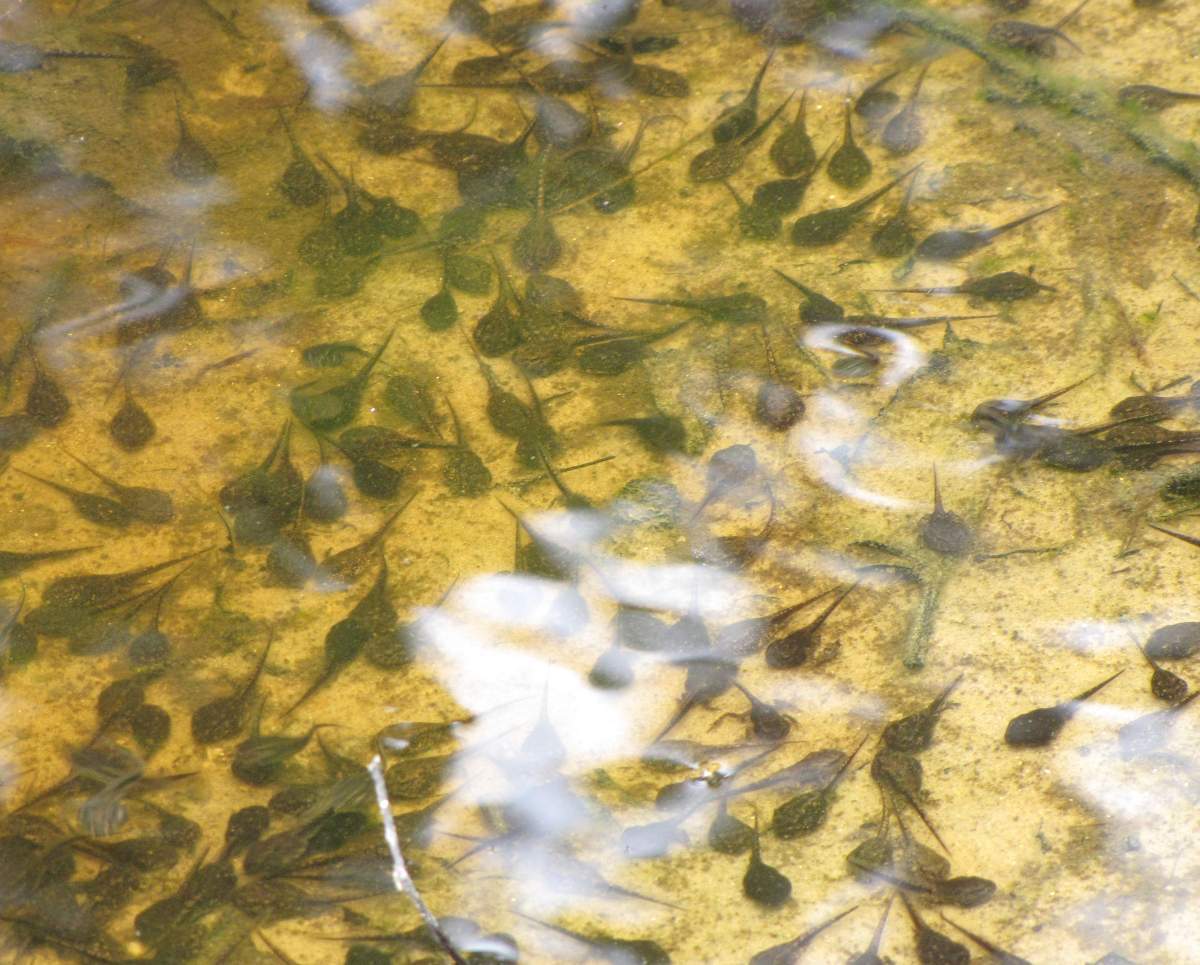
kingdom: Animalia
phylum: Chordata
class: Amphibia
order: Anura
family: Bufonidae
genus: Anaxyrus
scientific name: Anaxyrus americanus
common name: American toad
